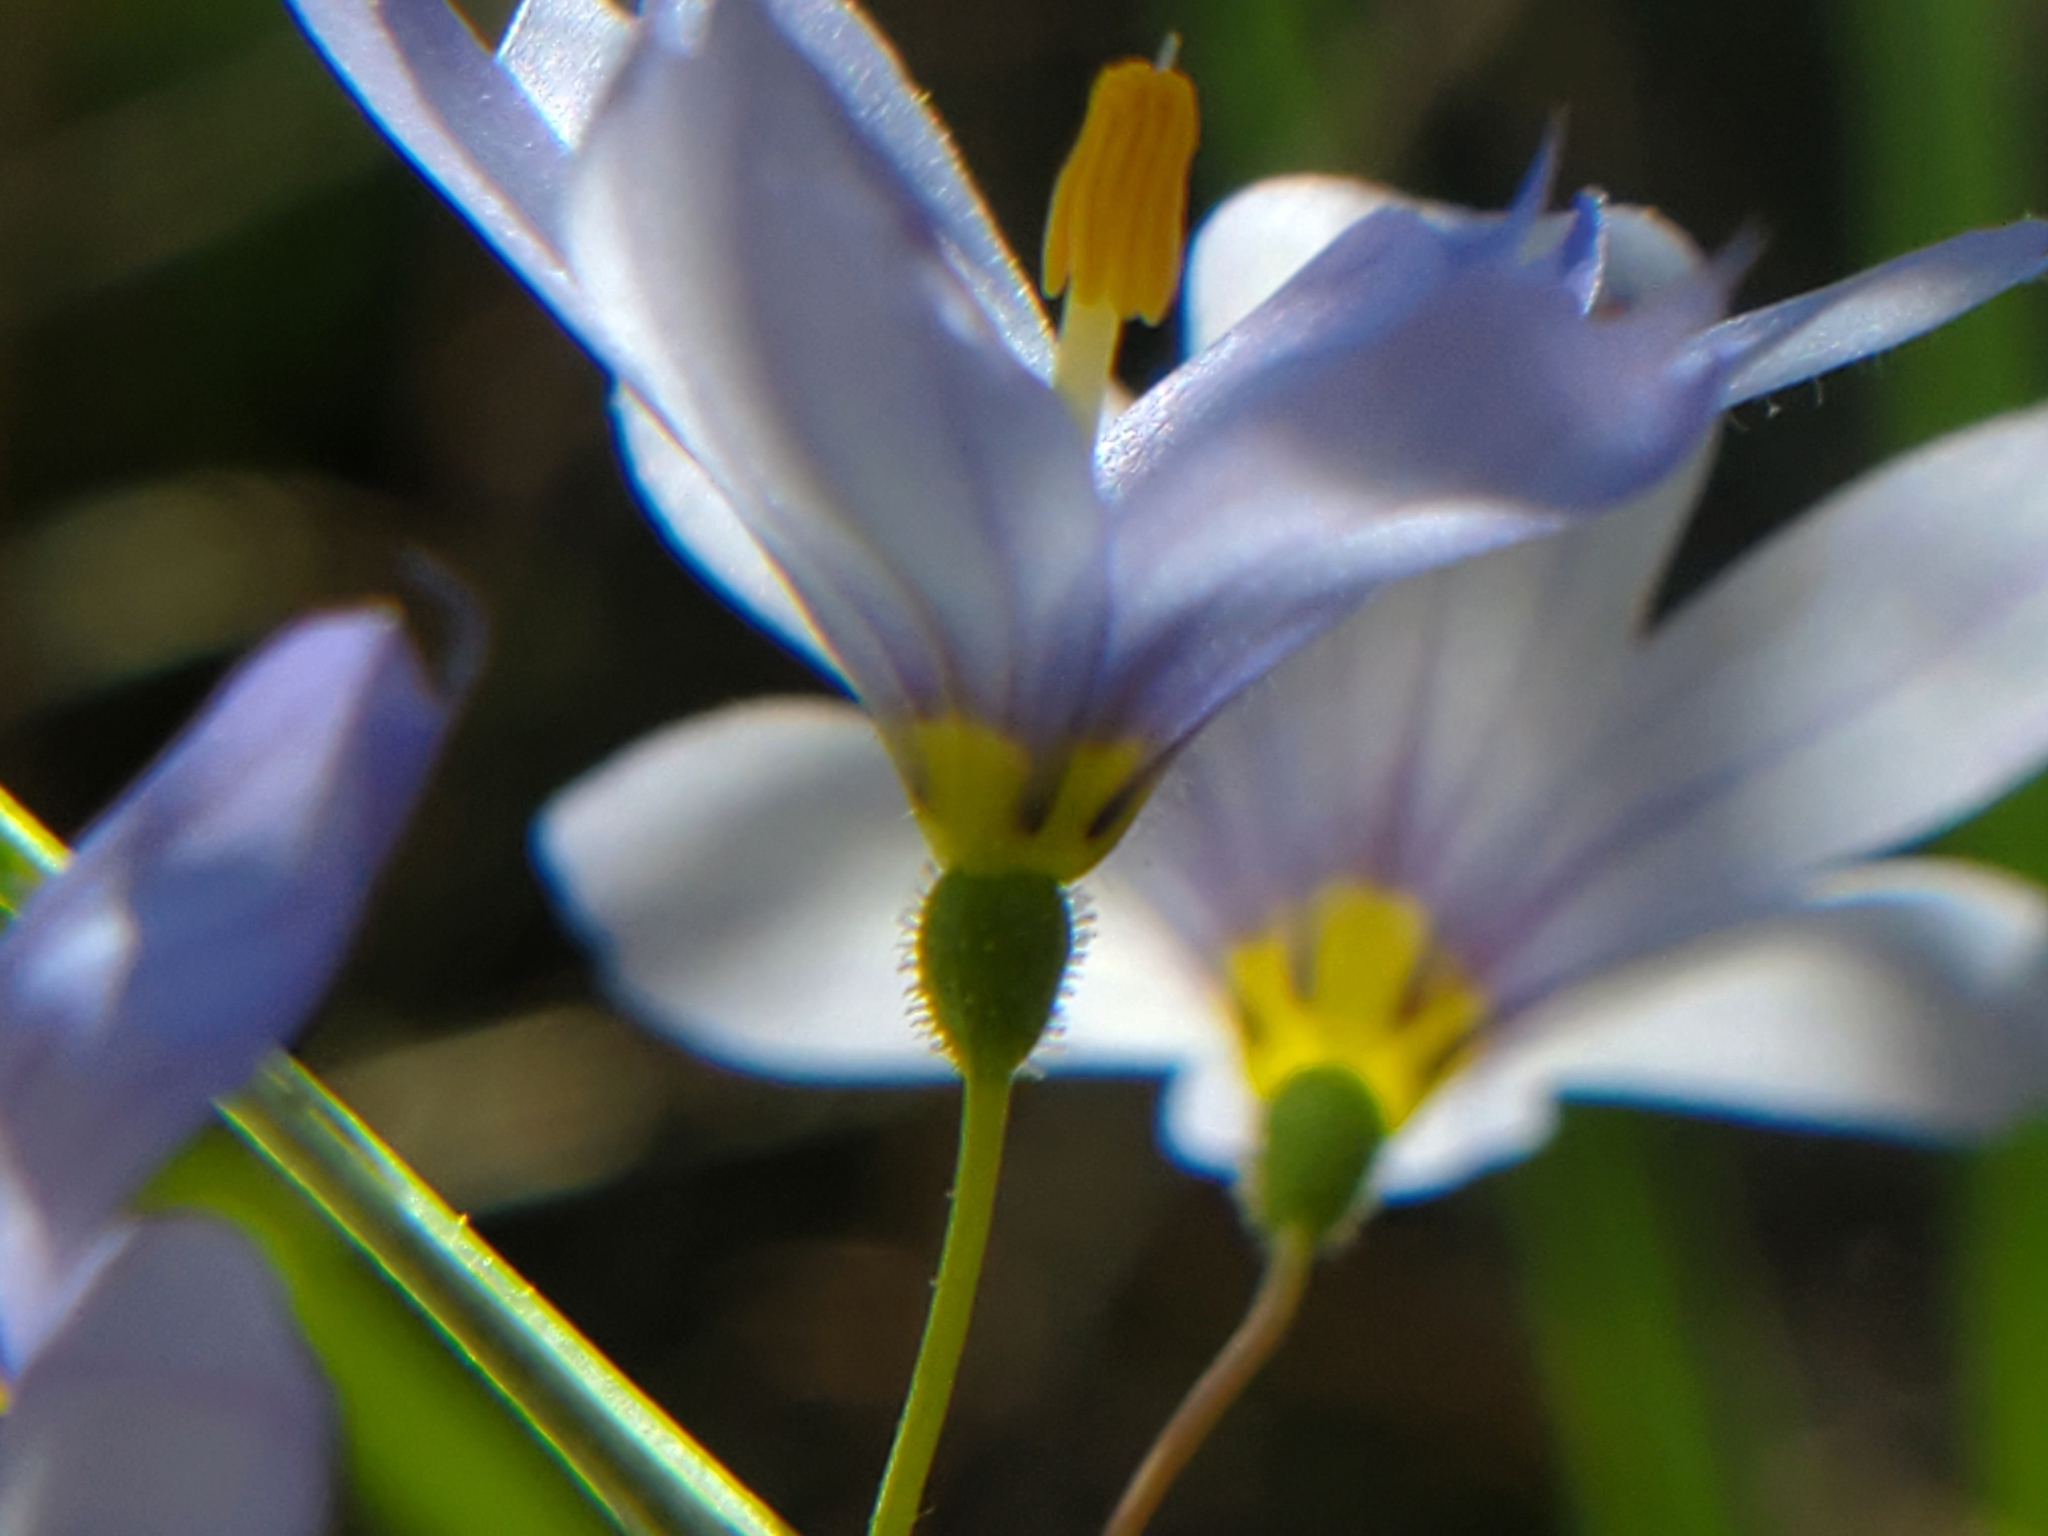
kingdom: Plantae
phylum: Tracheophyta
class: Liliopsida
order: Asparagales
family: Iridaceae
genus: Sisyrinchium
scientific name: Sisyrinchium albidum
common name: Pale blue-eyed-grass
